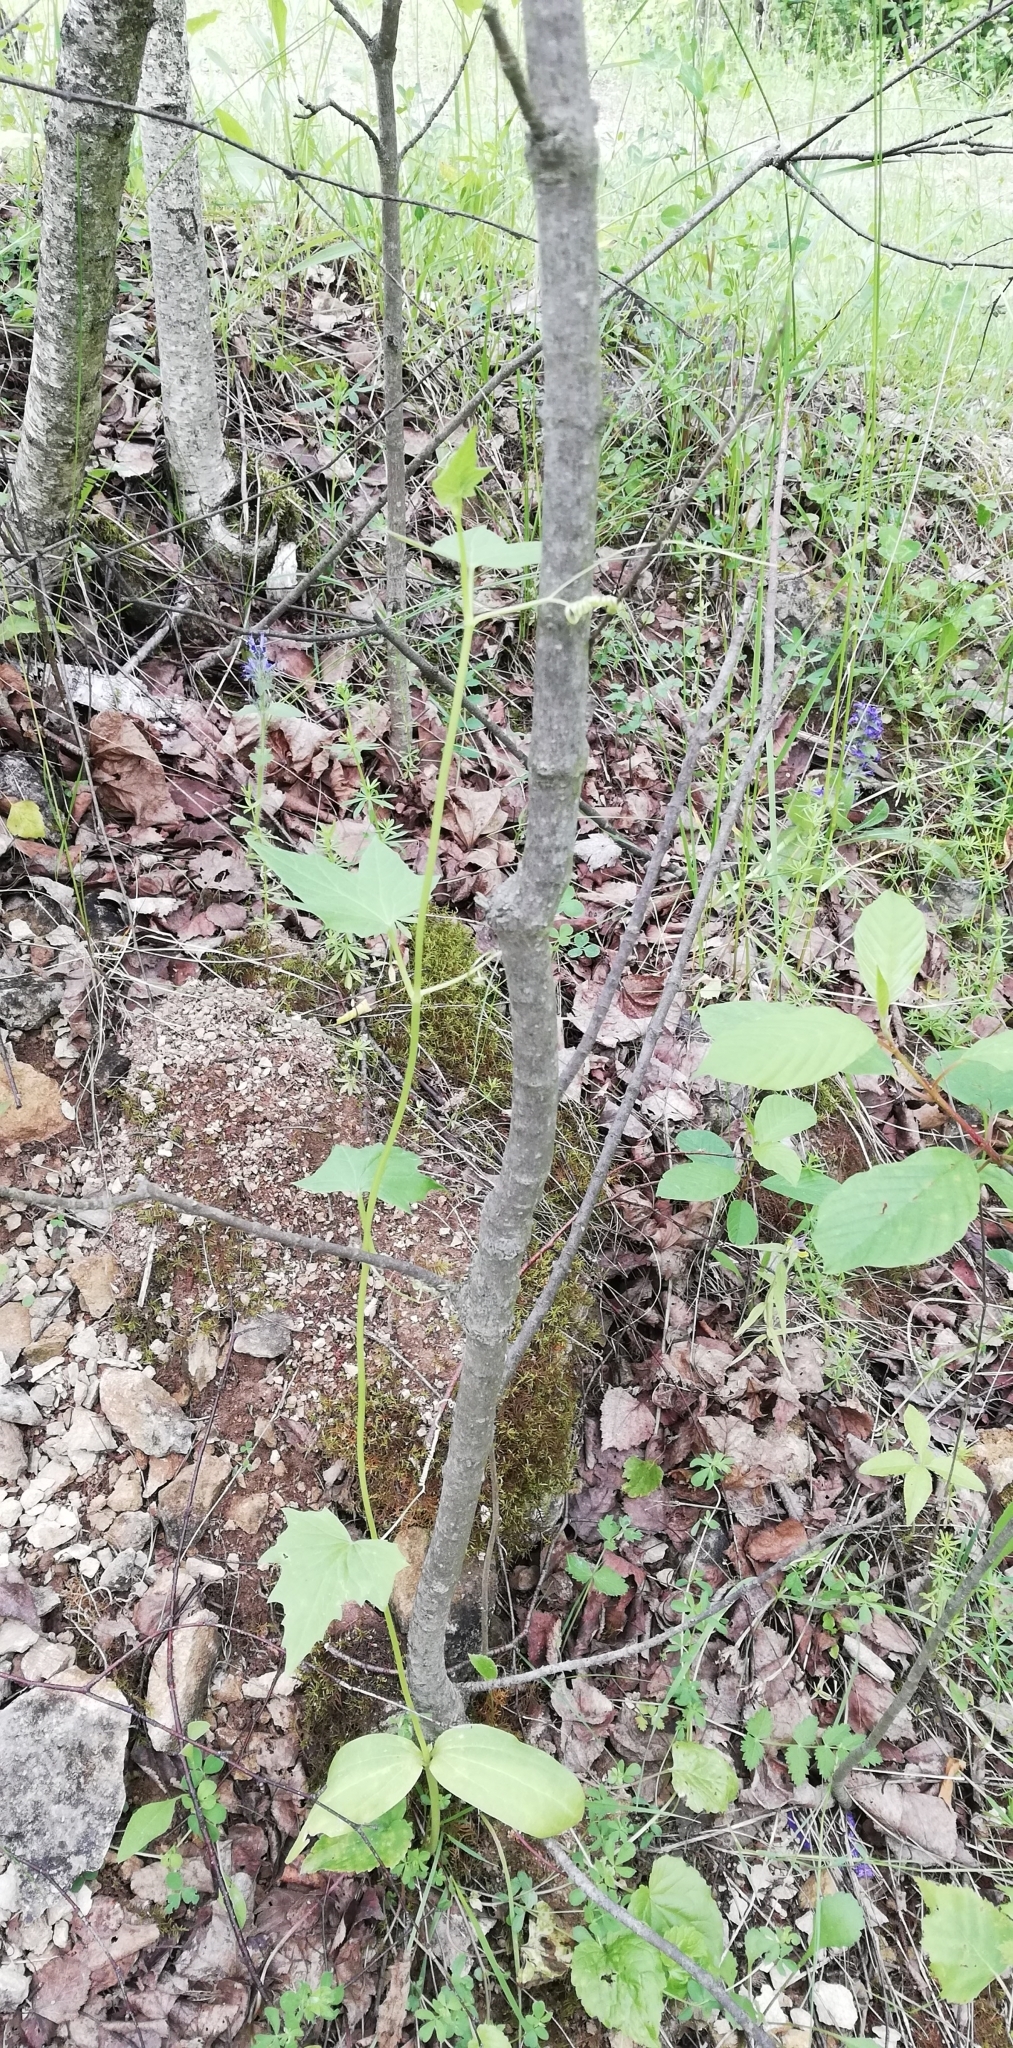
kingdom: Plantae
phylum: Tracheophyta
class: Magnoliopsida
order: Cucurbitales
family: Cucurbitaceae
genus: Echinocystis
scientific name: Echinocystis lobata
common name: Wild cucumber
